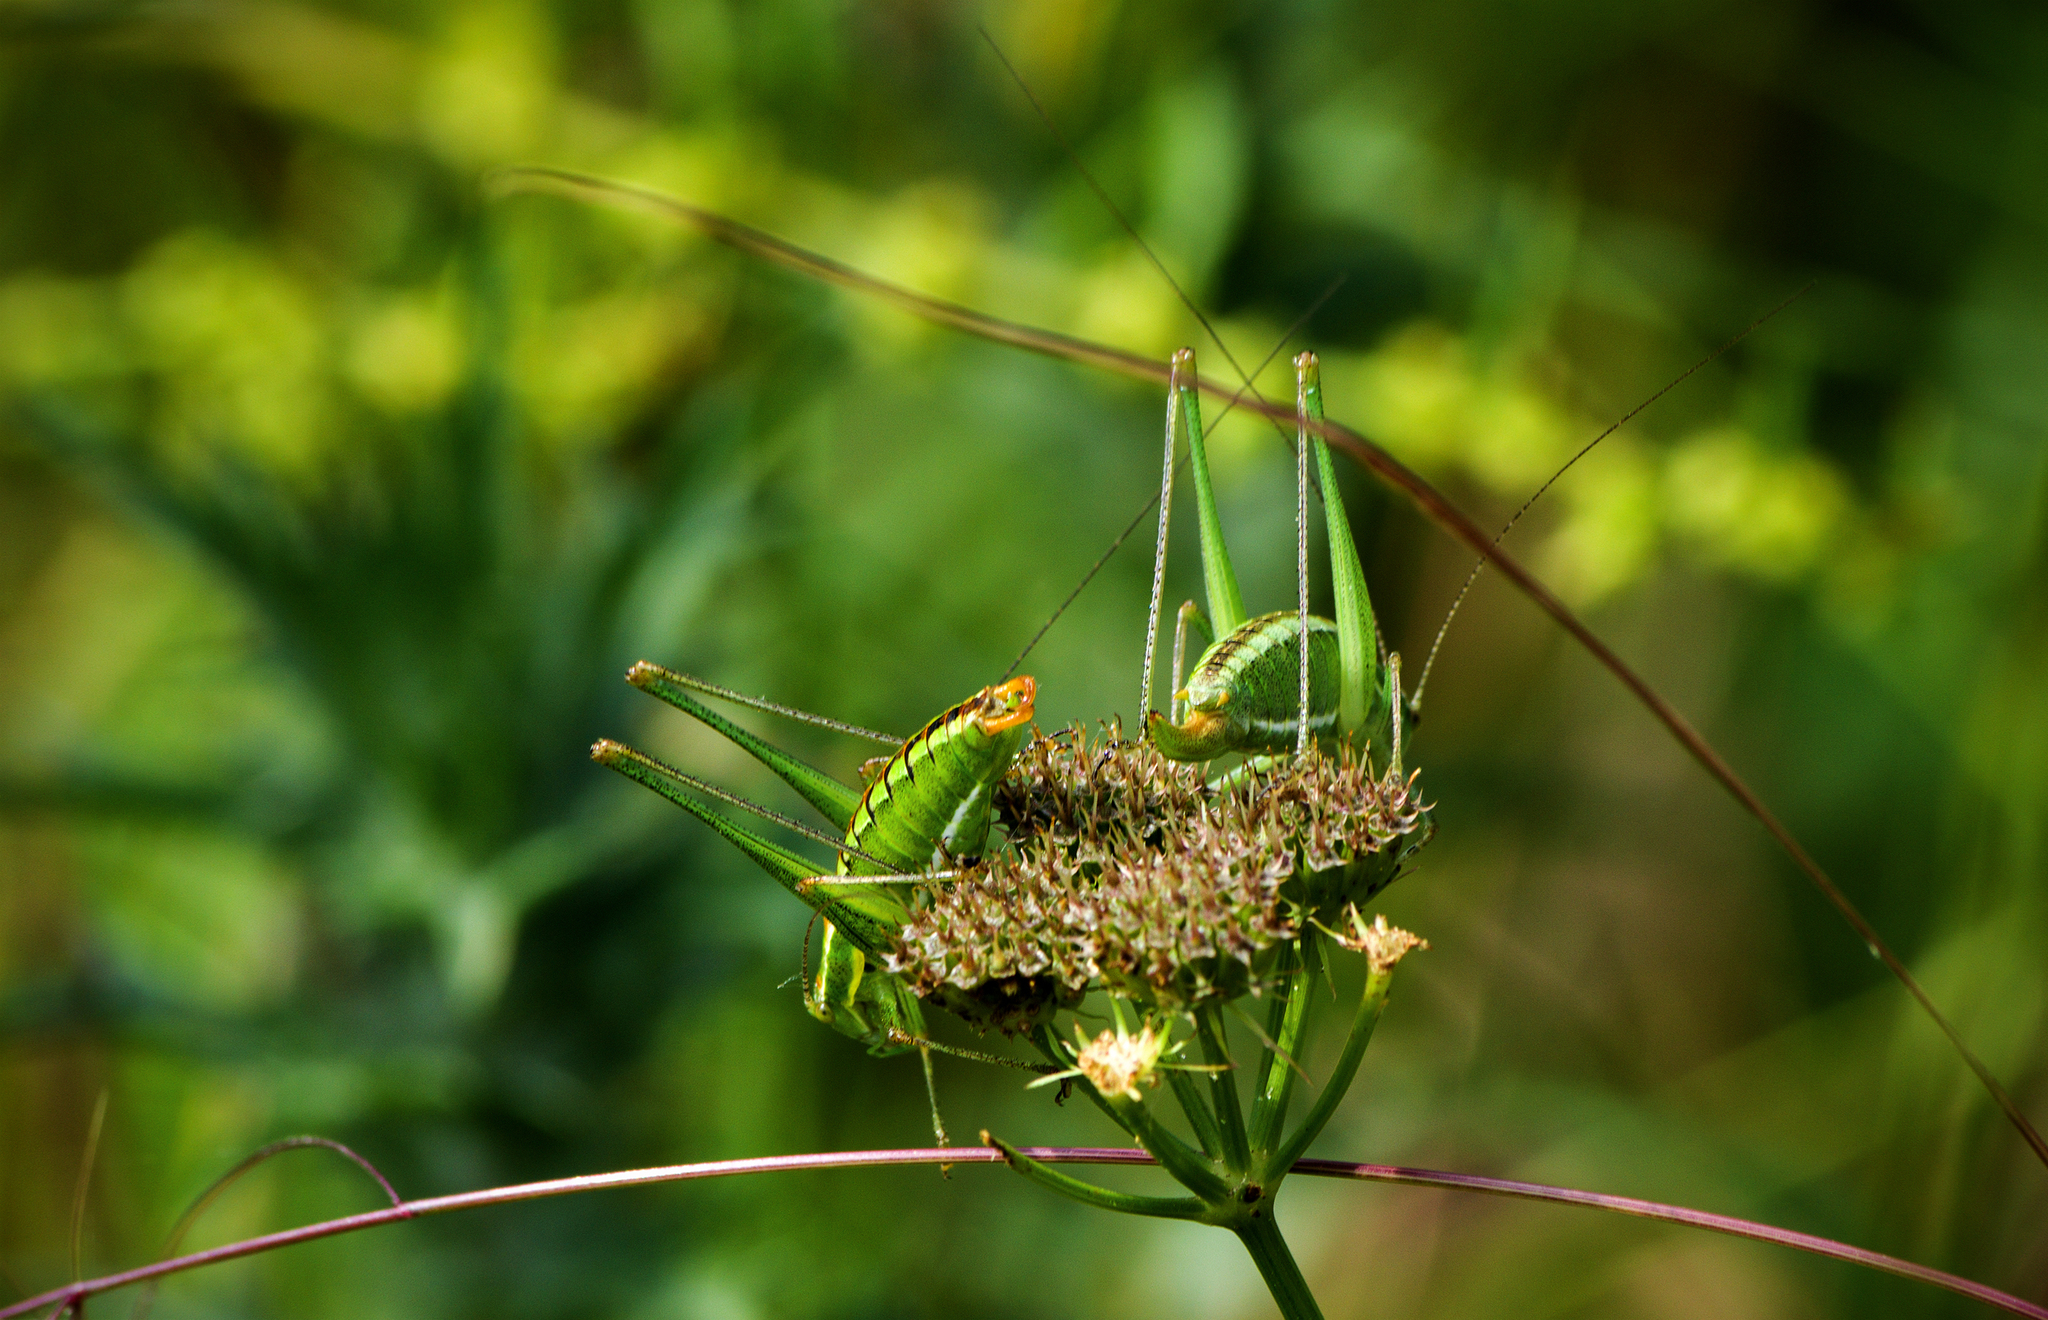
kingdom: Animalia
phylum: Arthropoda
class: Insecta
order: Orthoptera
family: Tettigoniidae
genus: Poecilimon
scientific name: Poecilimon fussii
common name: Fuss' bright bush-cricket
